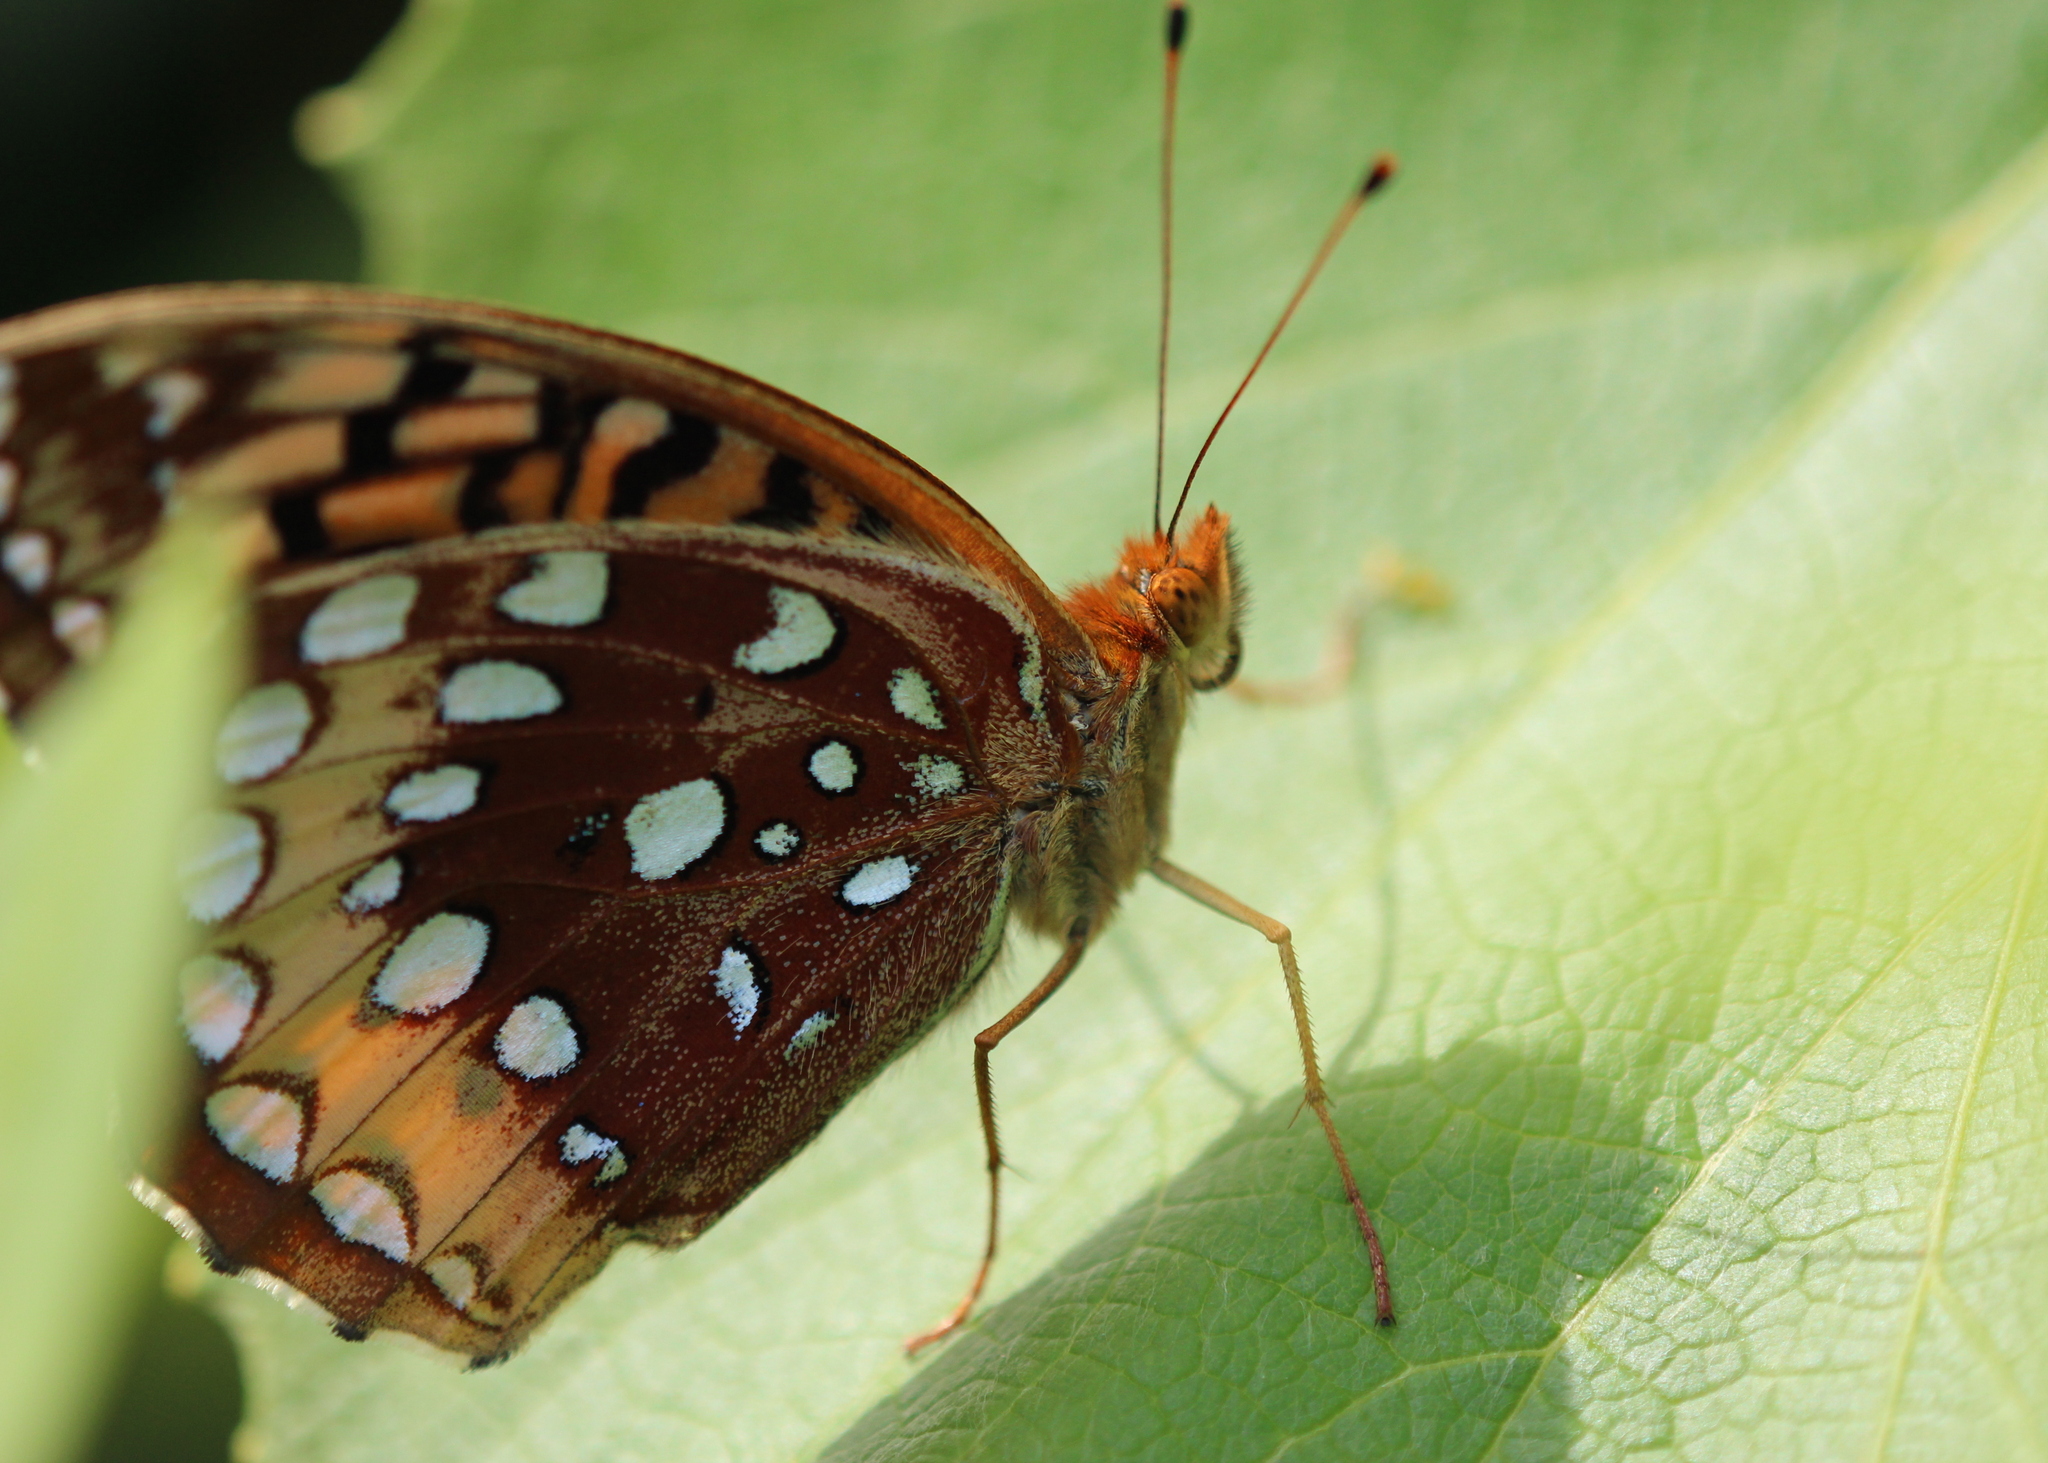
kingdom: Animalia
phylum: Arthropoda
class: Insecta
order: Lepidoptera
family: Nymphalidae
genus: Speyeria
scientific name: Speyeria cybele
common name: Great spangled fritillary
